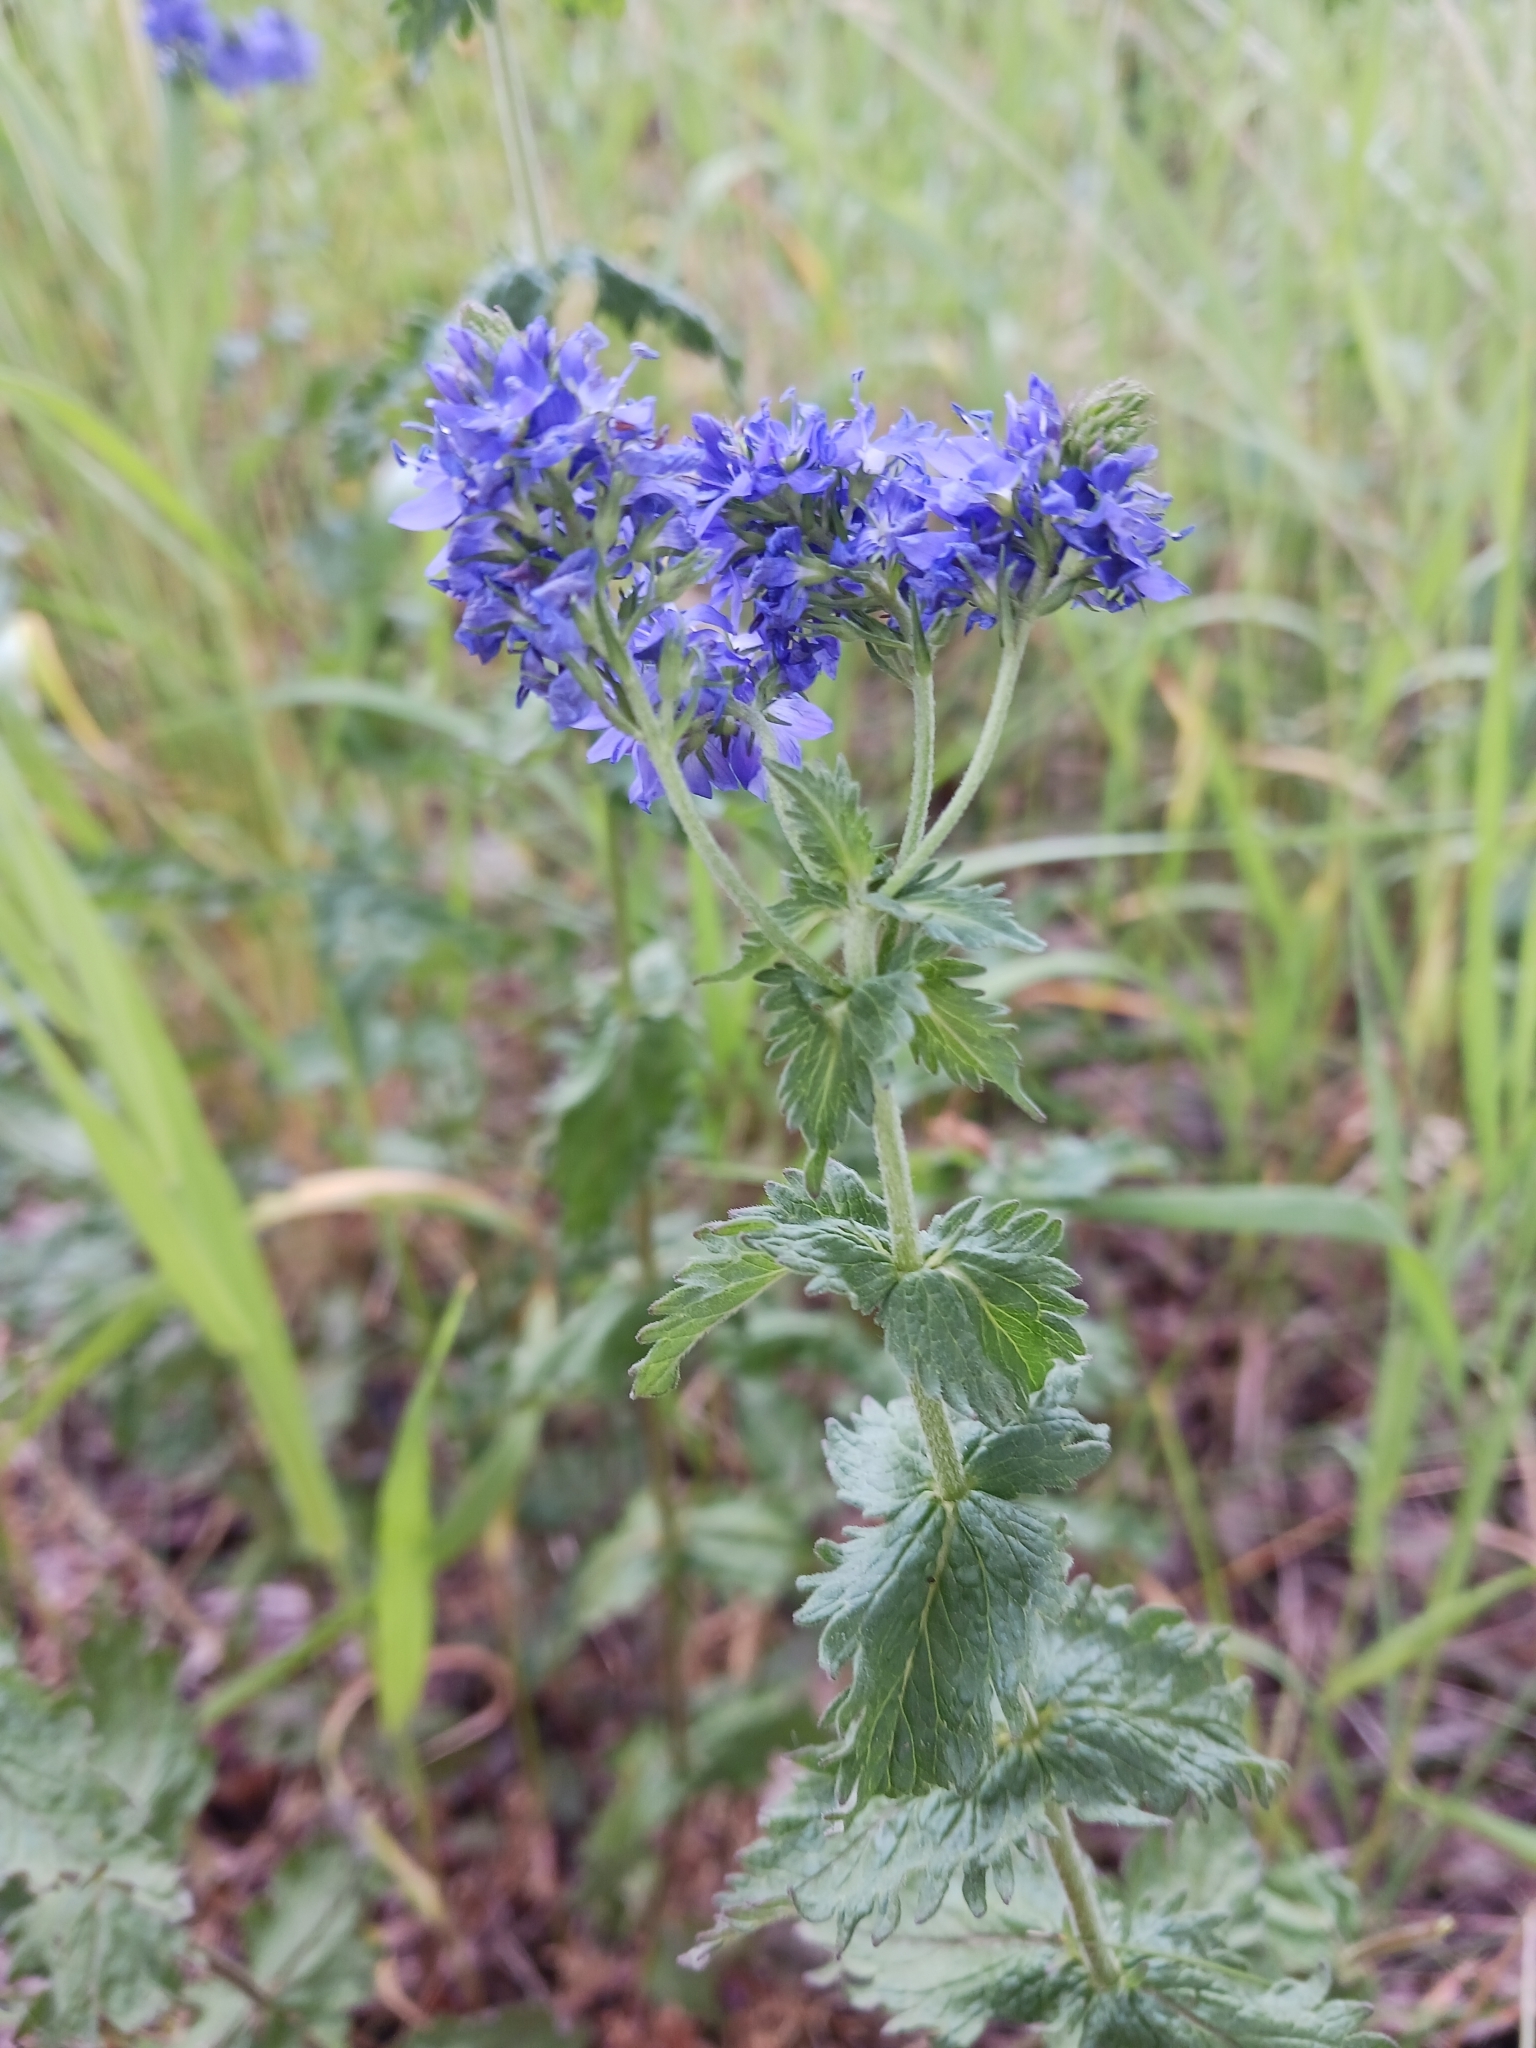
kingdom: Plantae
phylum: Tracheophyta
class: Magnoliopsida
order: Lamiales
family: Plantaginaceae
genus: Veronica
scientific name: Veronica teucrium
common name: Large speedwell
